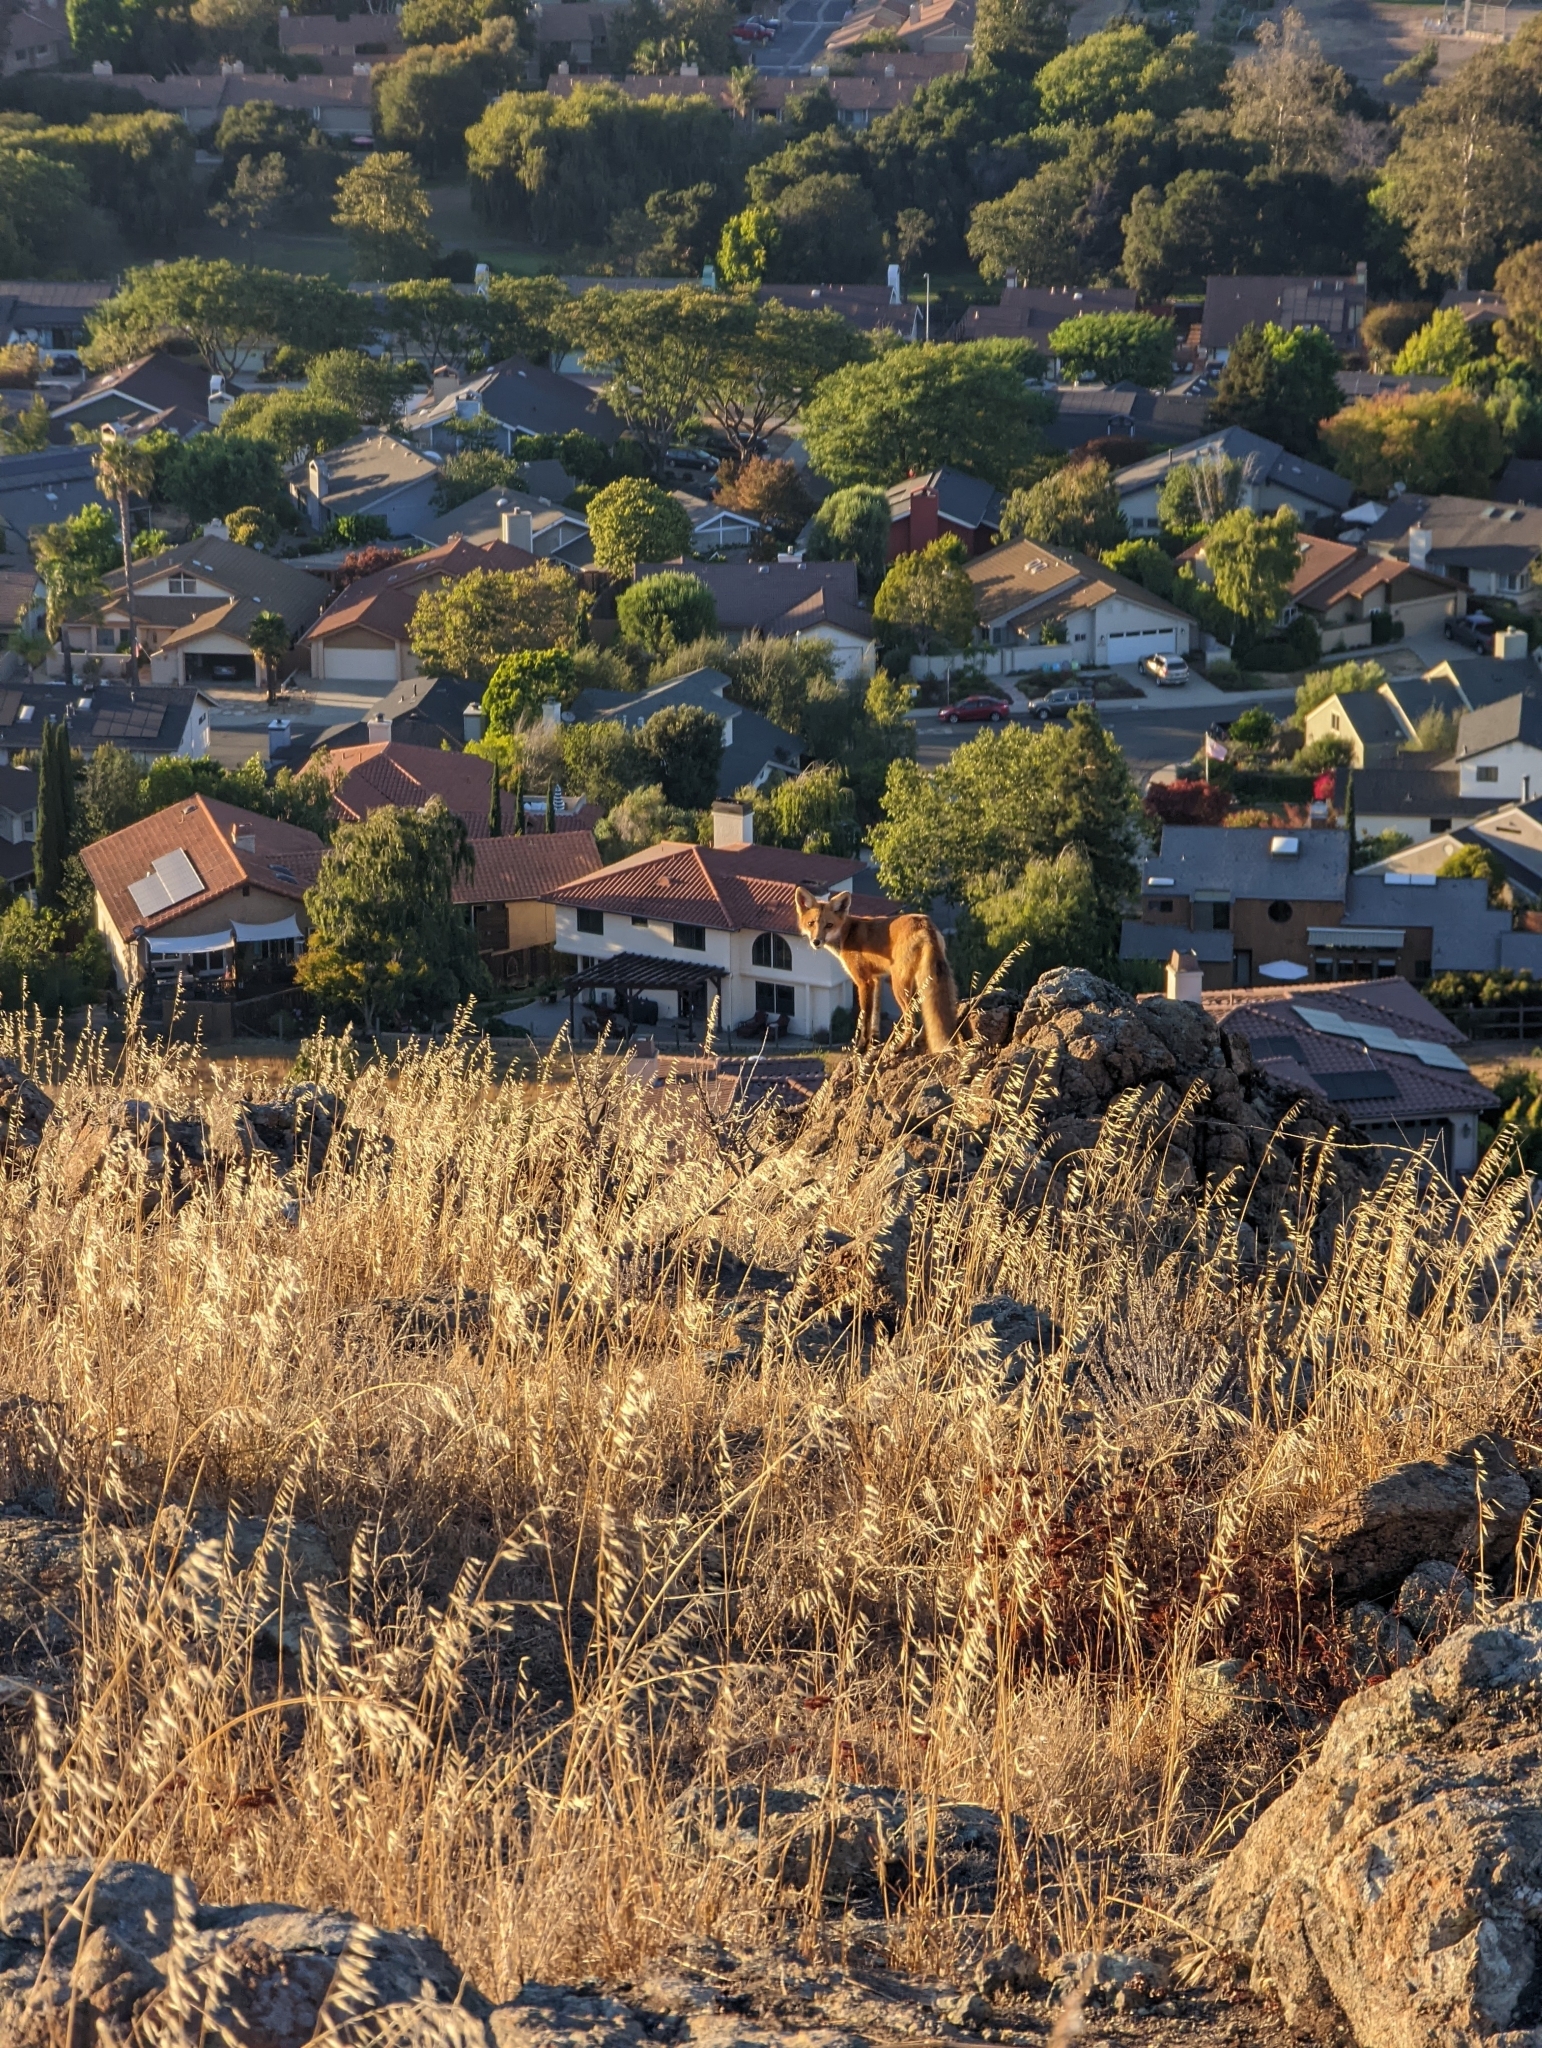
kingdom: Animalia
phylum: Chordata
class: Mammalia
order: Carnivora
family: Canidae
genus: Vulpes
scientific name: Vulpes vulpes
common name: Red fox
